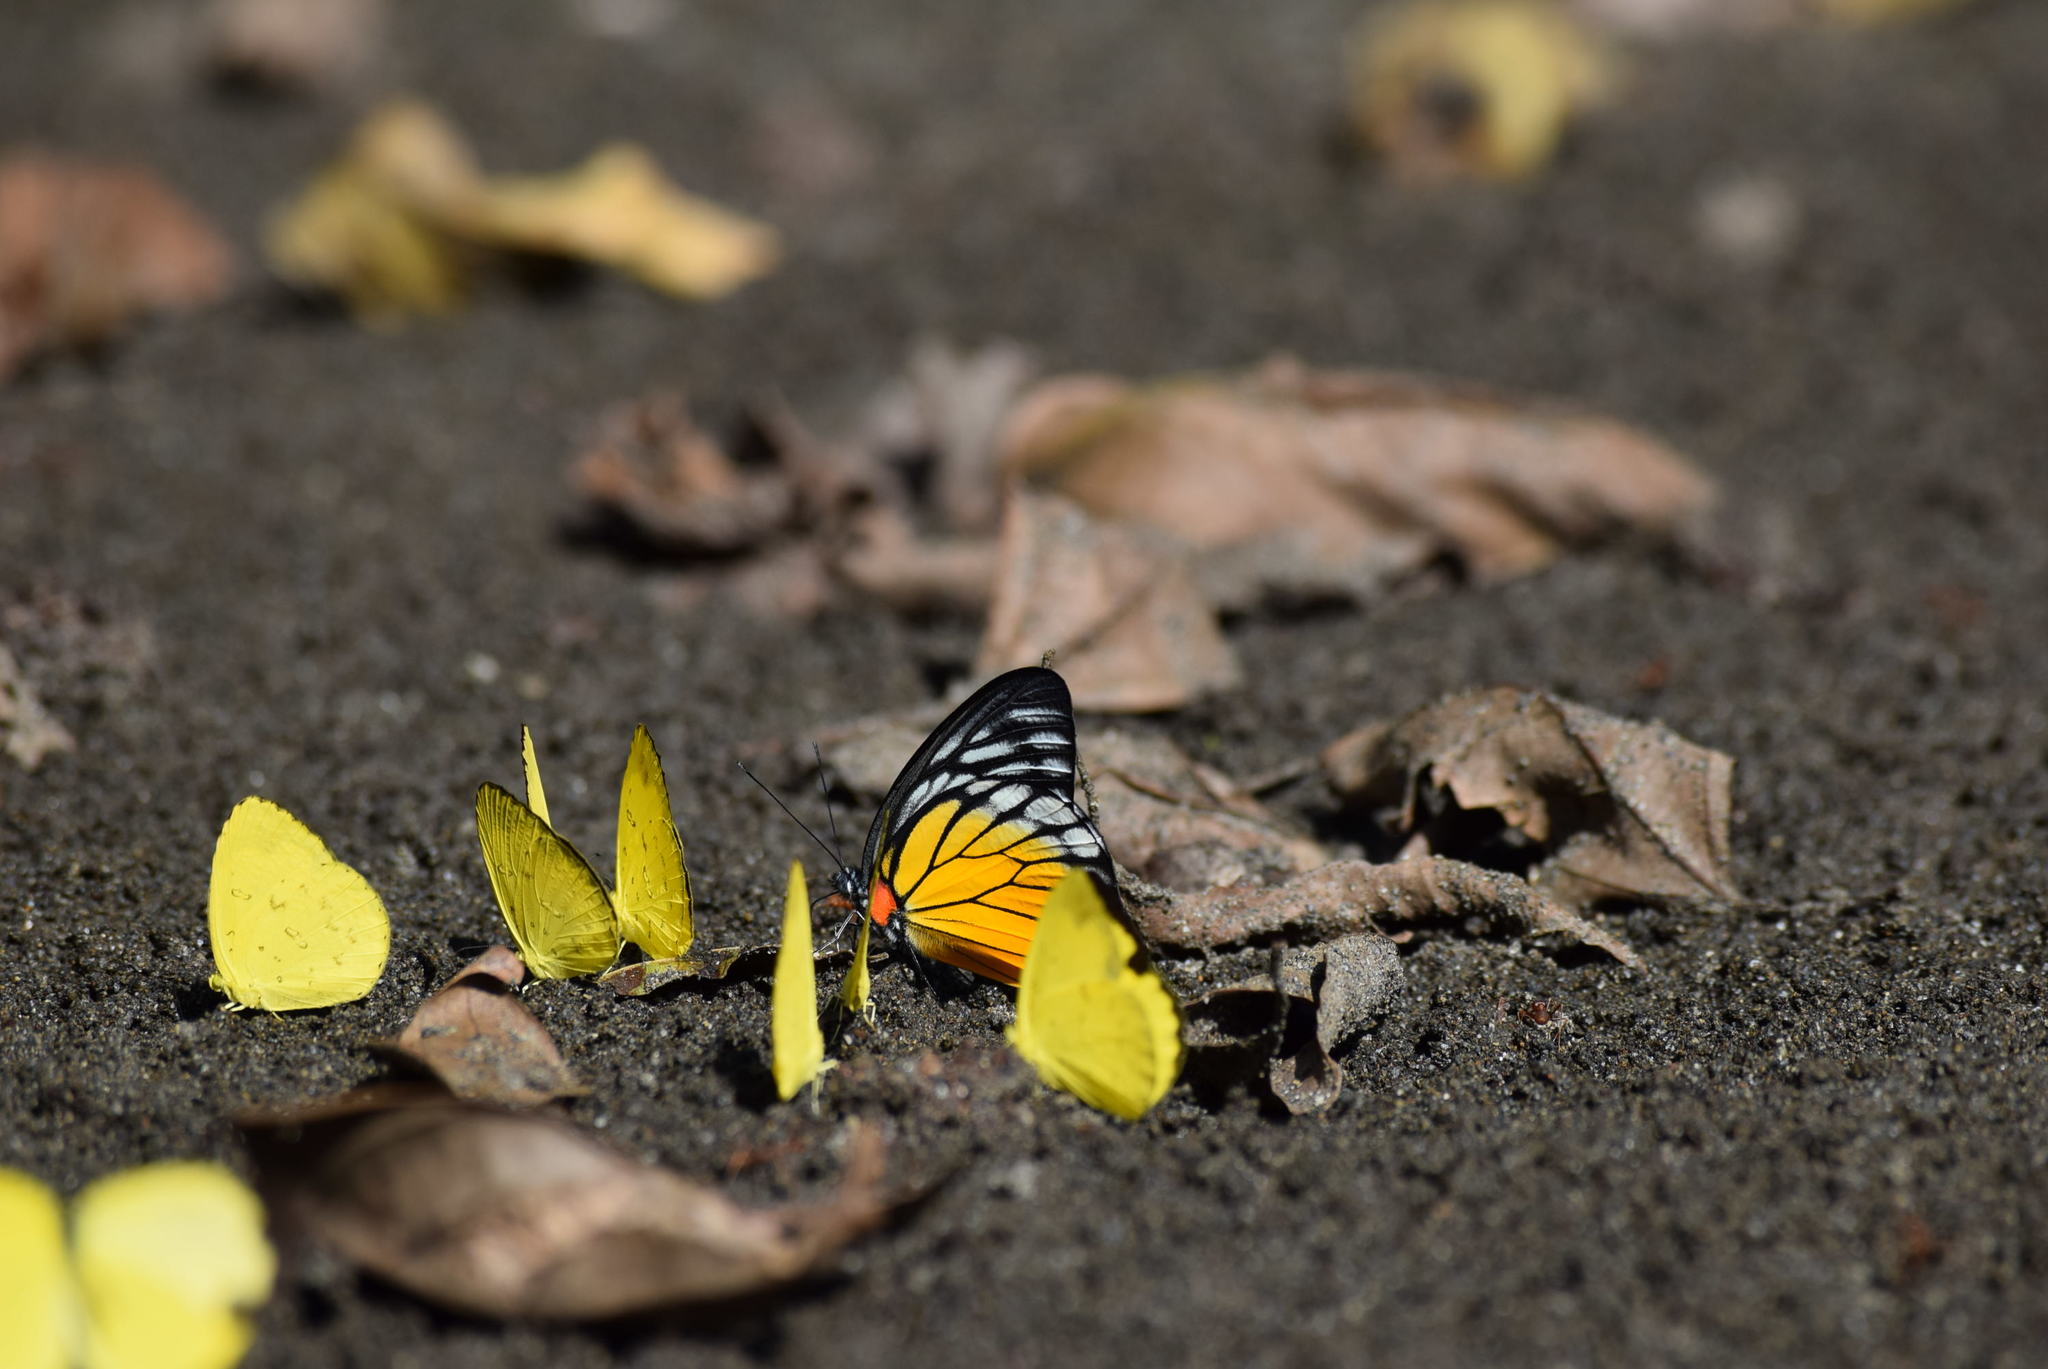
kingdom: Animalia
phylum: Arthropoda
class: Insecta
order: Lepidoptera
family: Pieridae
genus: Delias
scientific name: Delias pasithoe
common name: Red-base jezebel
